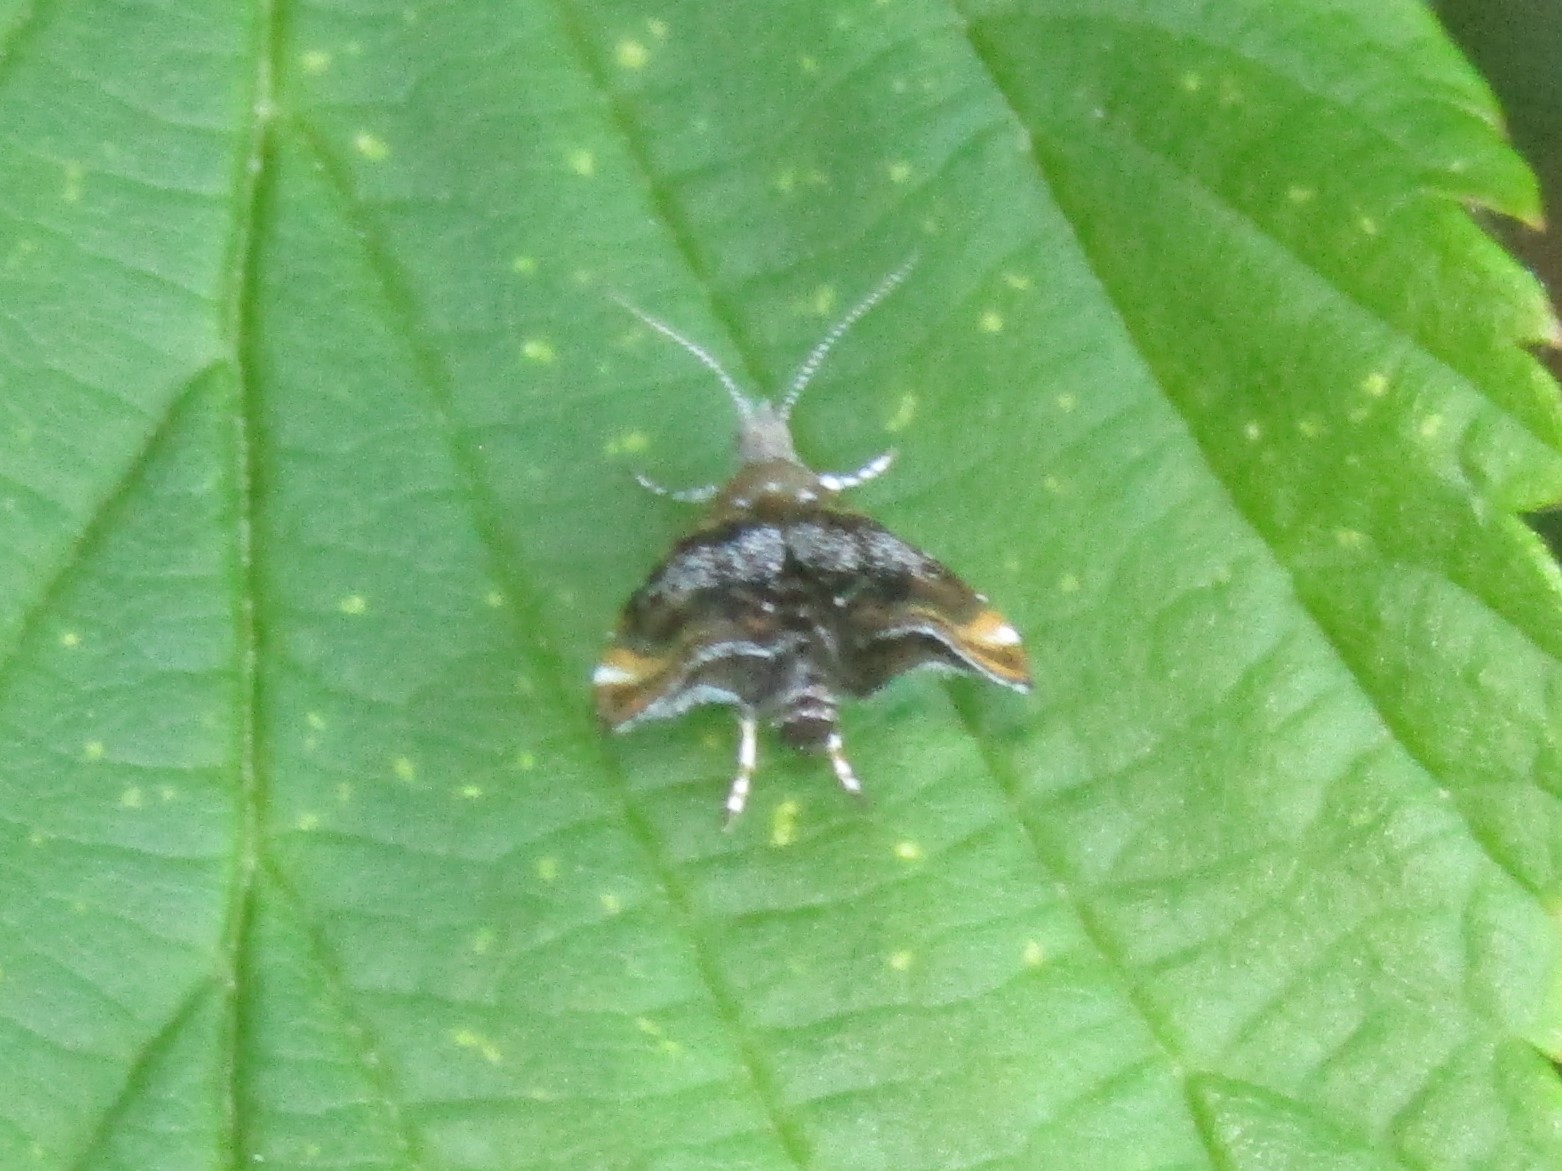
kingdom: Animalia
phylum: Arthropoda
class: Insecta
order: Lepidoptera
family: Choreutidae
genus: Prochoreutis
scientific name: Prochoreutis inflatella
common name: Skullcap skeletonizer moth
